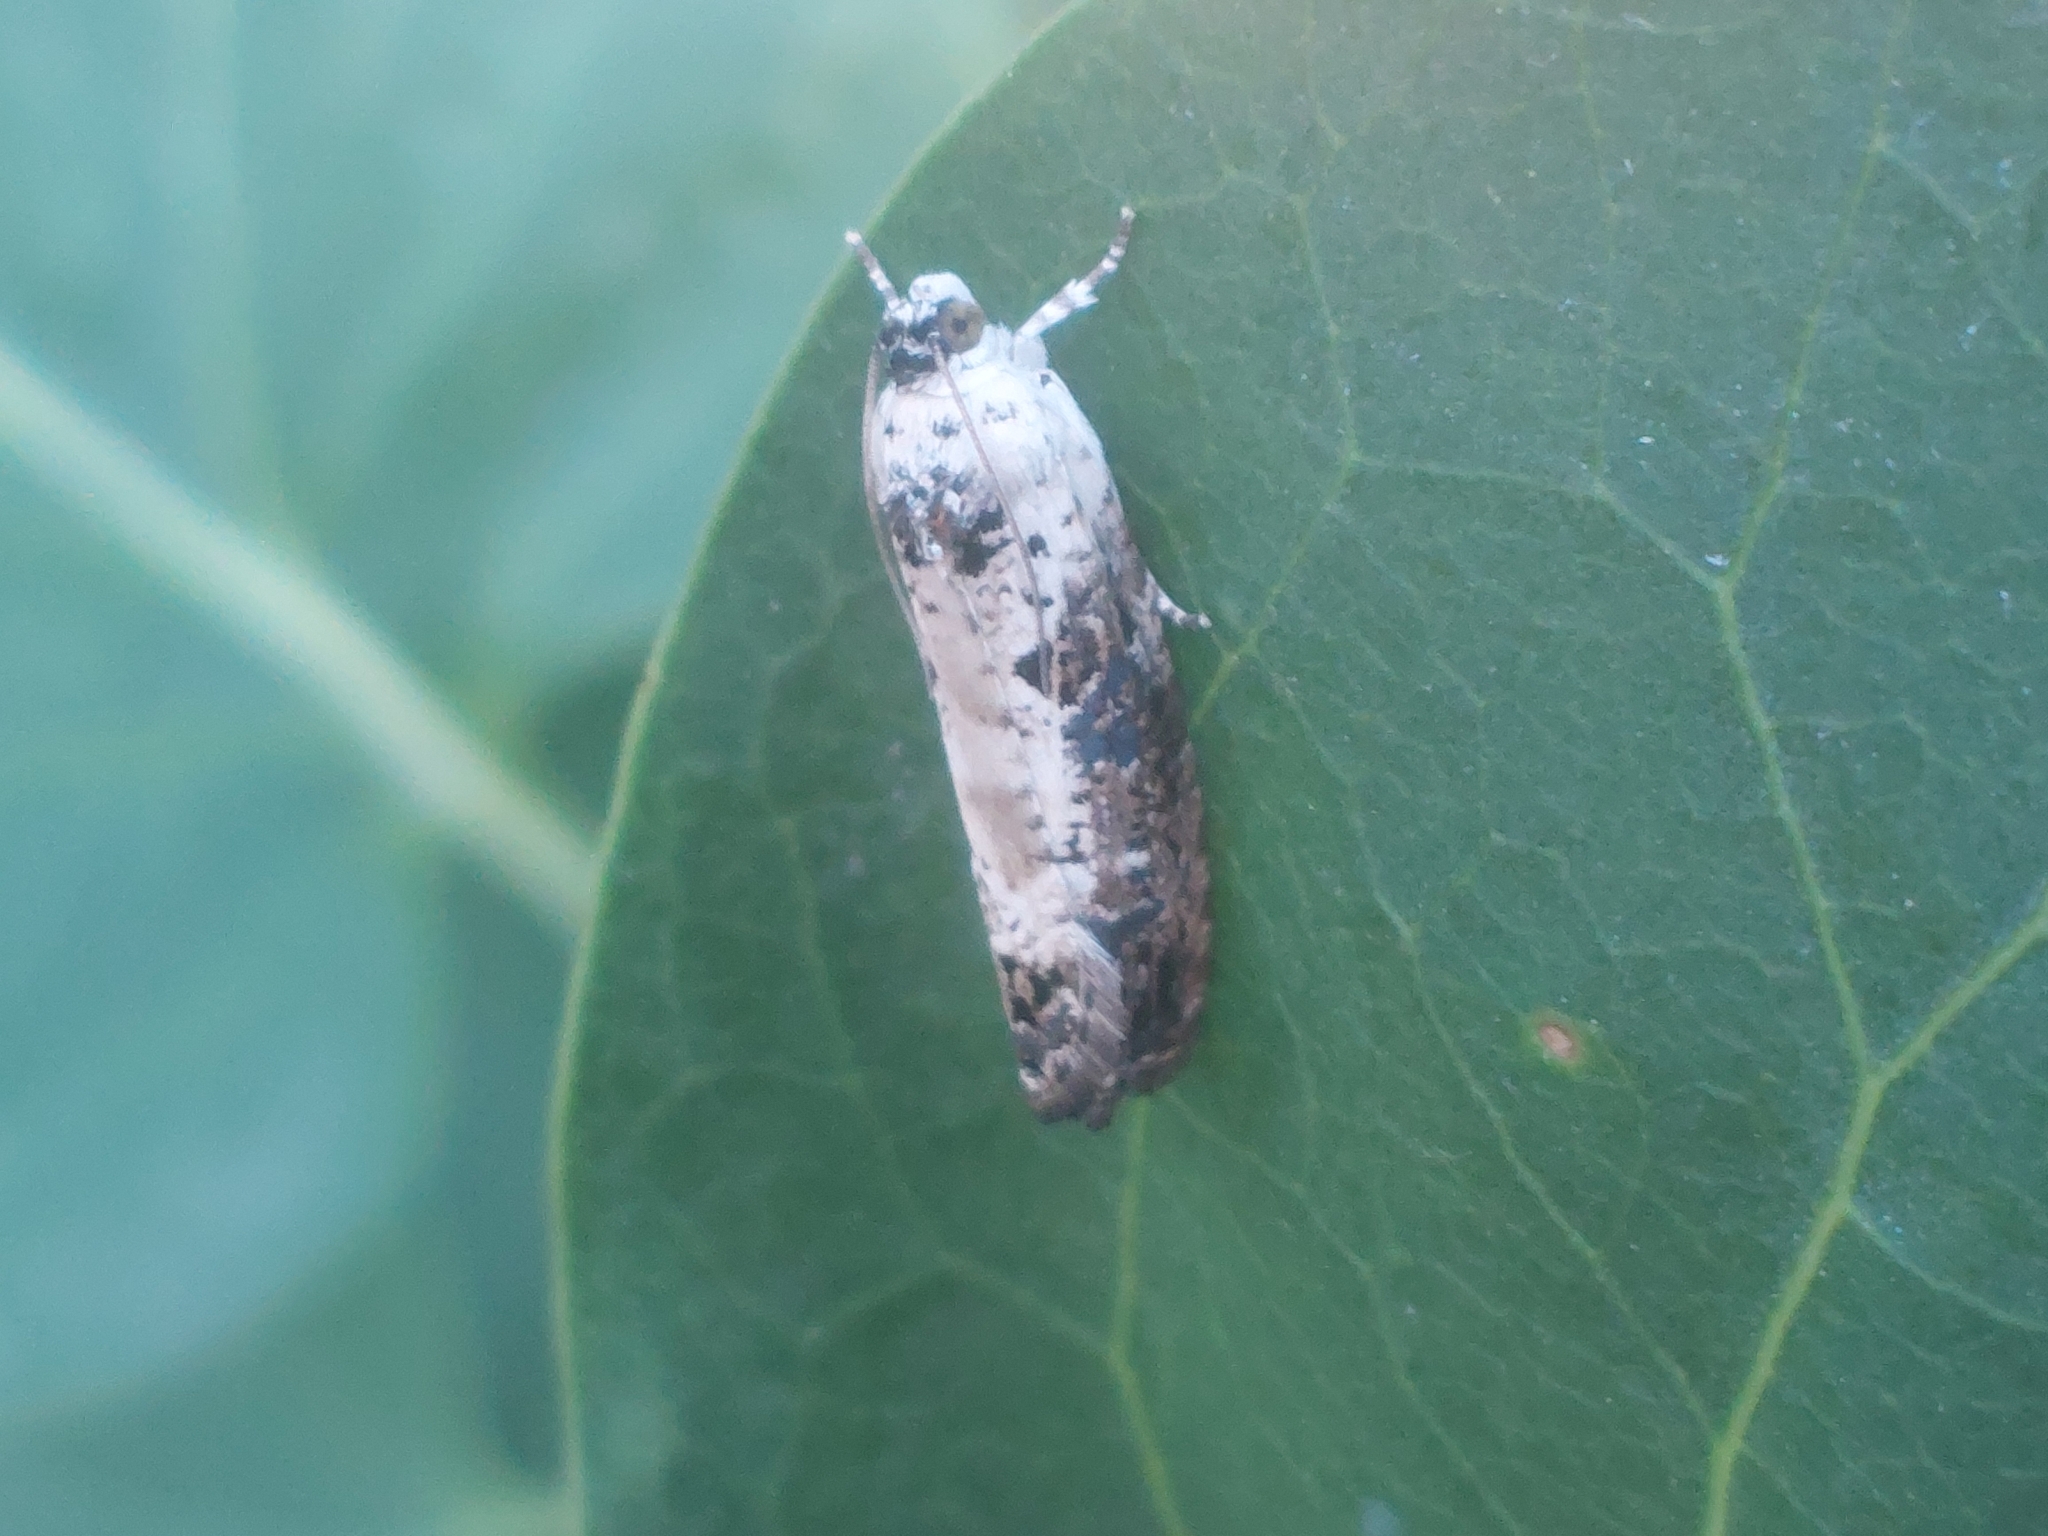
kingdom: Animalia
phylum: Arthropoda
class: Insecta
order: Lepidoptera
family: Tortricidae
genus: Hedya
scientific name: Hedya salicella
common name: Large tortricid moth
